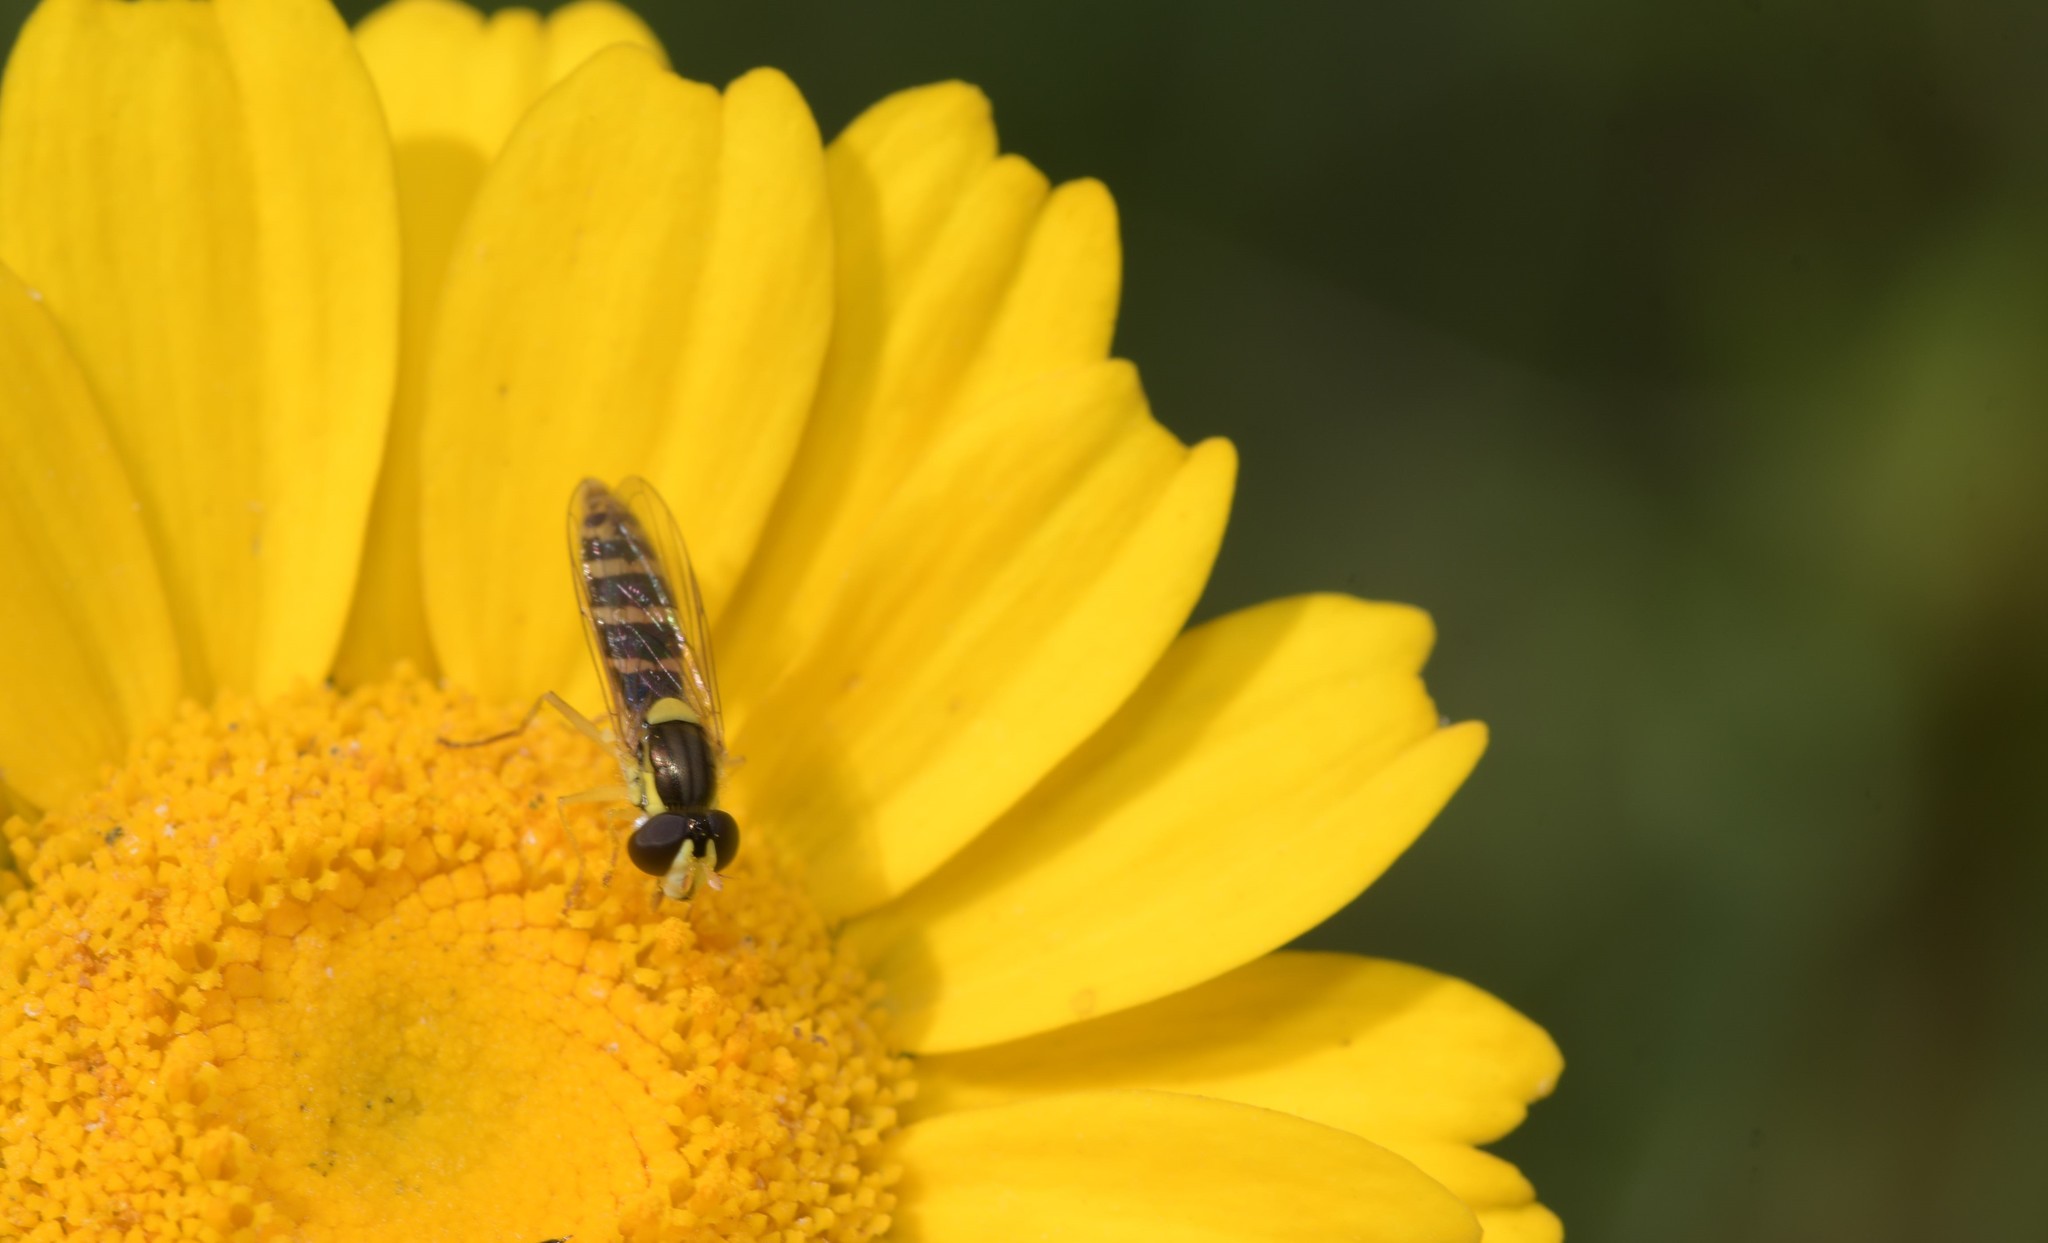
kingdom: Animalia
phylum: Arthropoda
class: Insecta
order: Diptera
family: Syrphidae
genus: Sphaerophoria
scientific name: Sphaerophoria
